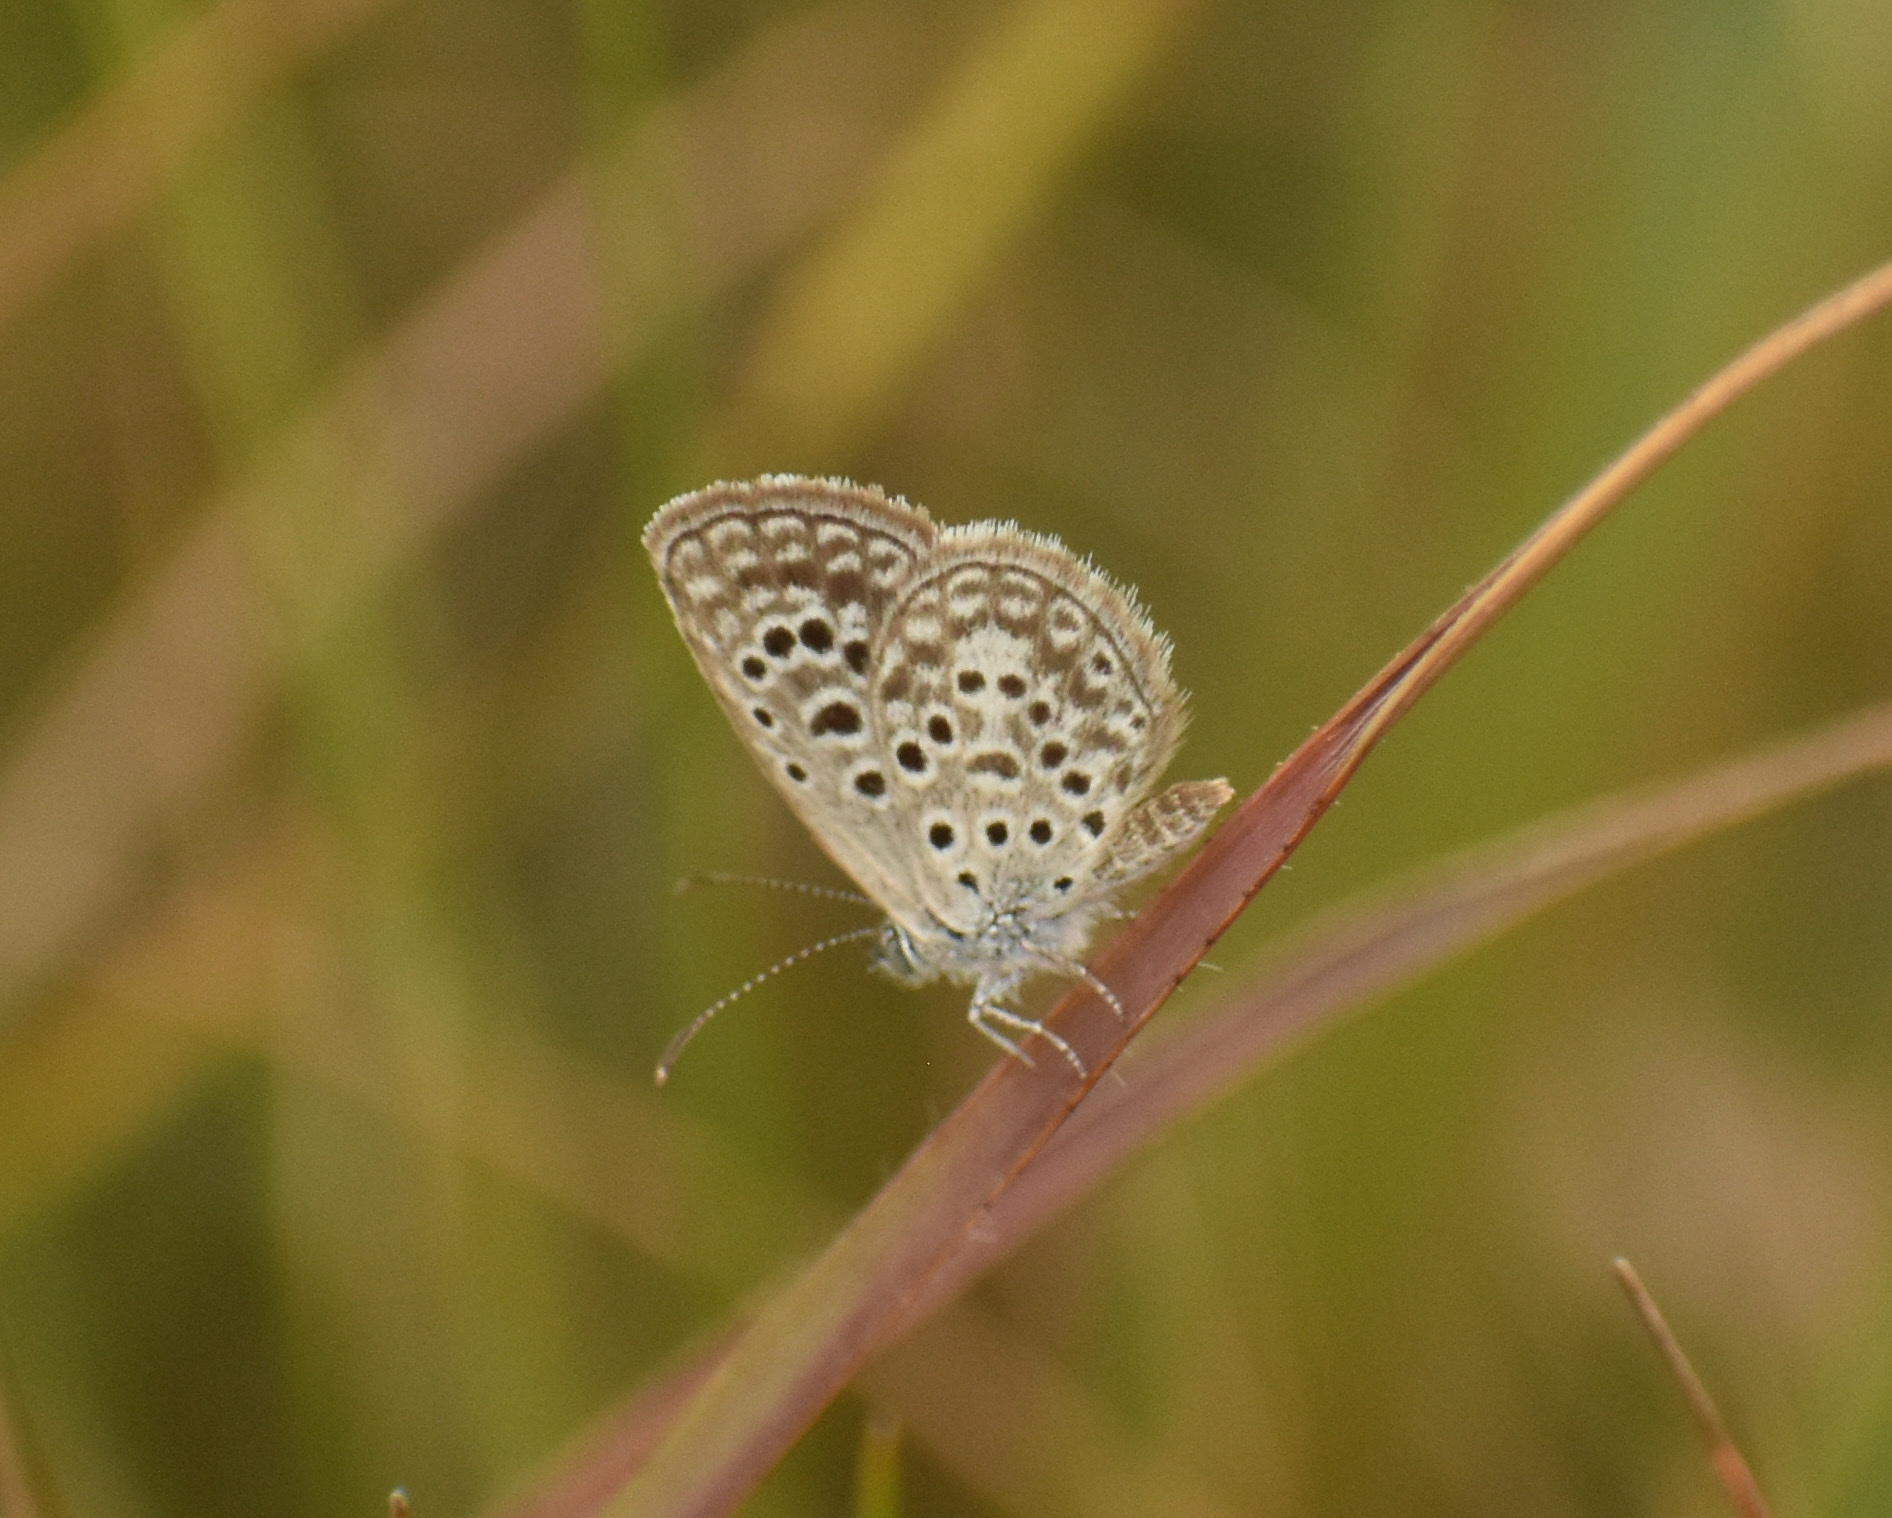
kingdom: Animalia
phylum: Arthropoda
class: Insecta
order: Lepidoptera
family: Lycaenidae
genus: Actizera
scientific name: Actizera lucida
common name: Rayed blue
